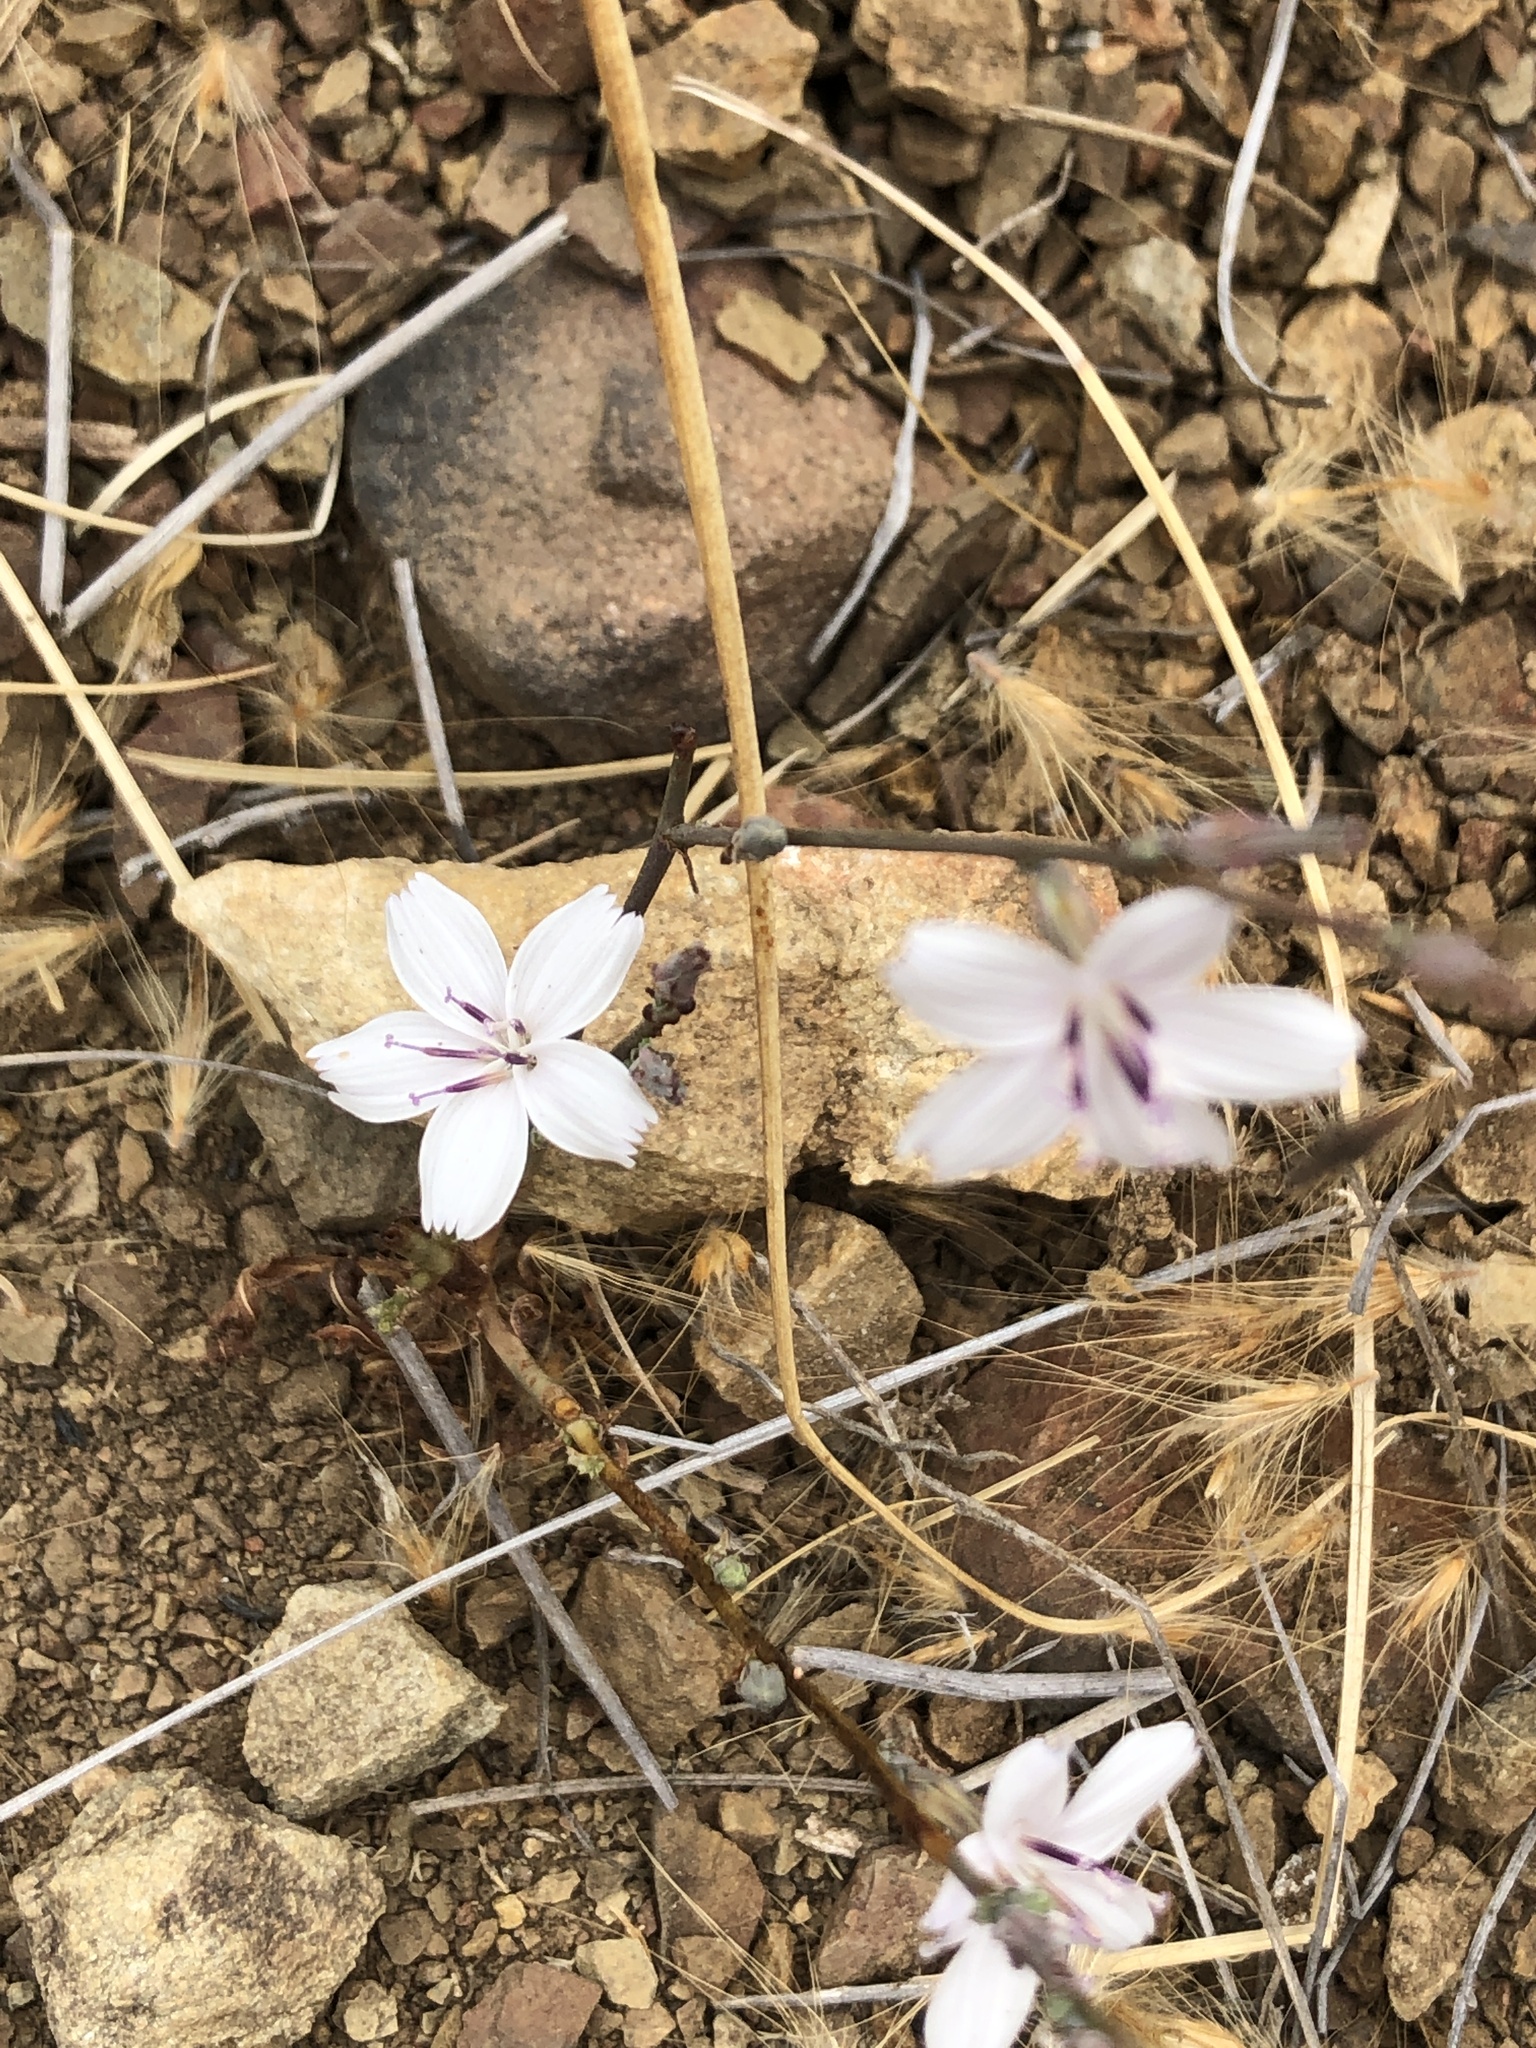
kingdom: Plantae
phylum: Tracheophyta
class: Magnoliopsida
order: Asterales
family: Asteraceae
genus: Stephanomeria
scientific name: Stephanomeria diegensis
